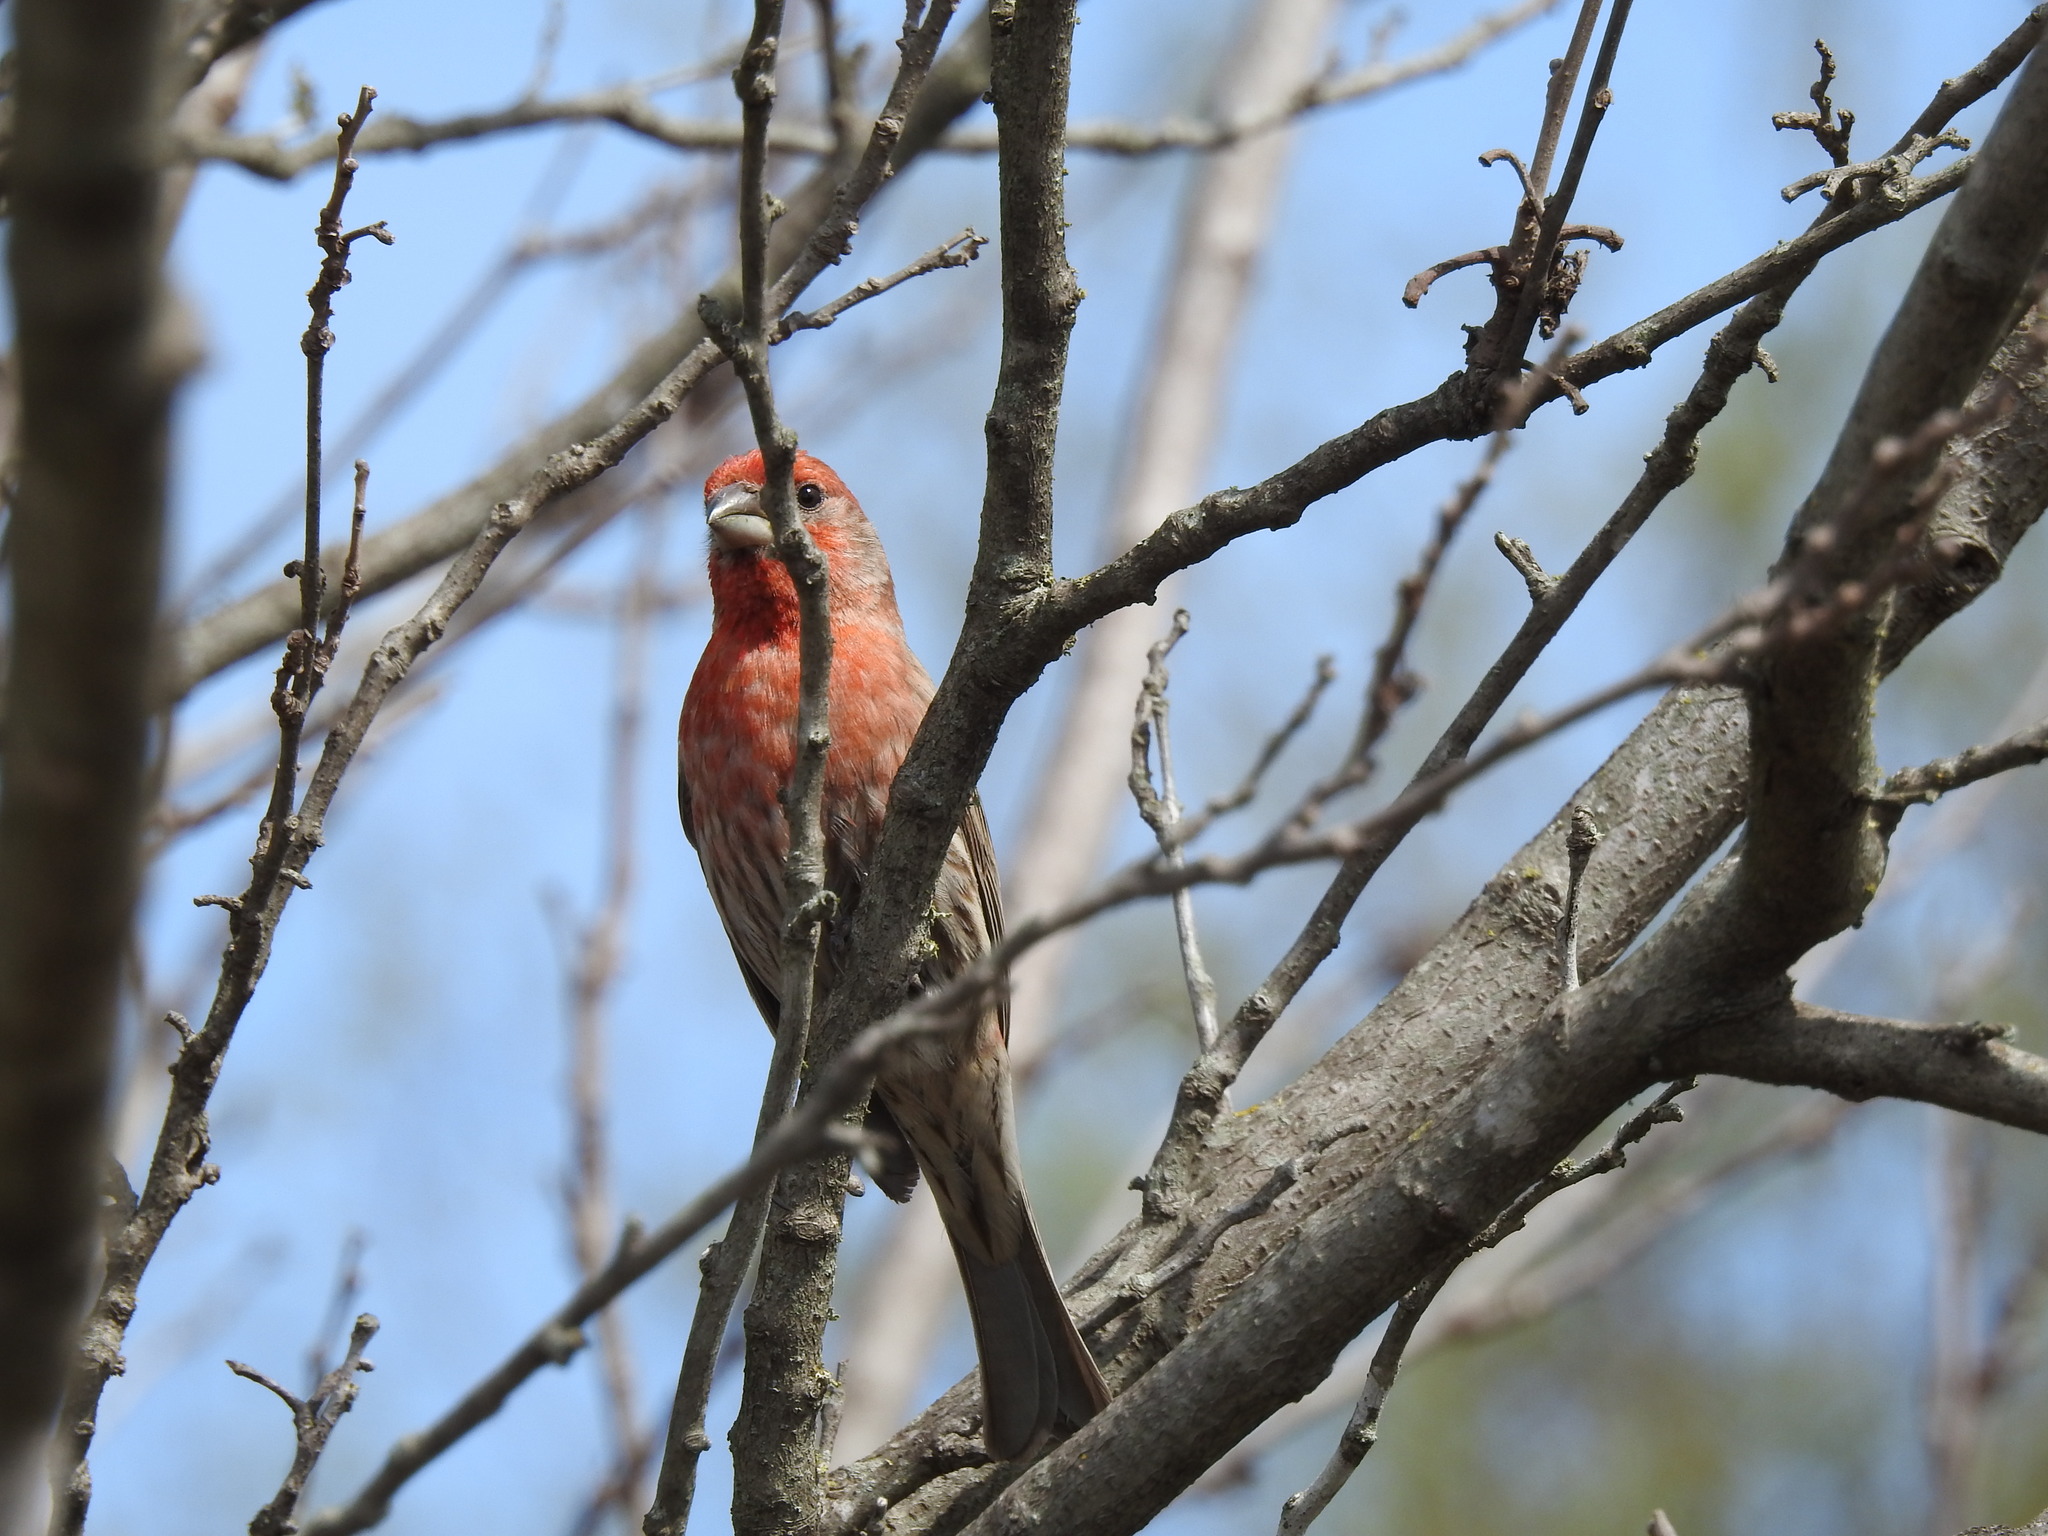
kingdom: Animalia
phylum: Chordata
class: Aves
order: Passeriformes
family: Fringillidae
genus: Haemorhous
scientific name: Haemorhous mexicanus
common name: House finch
